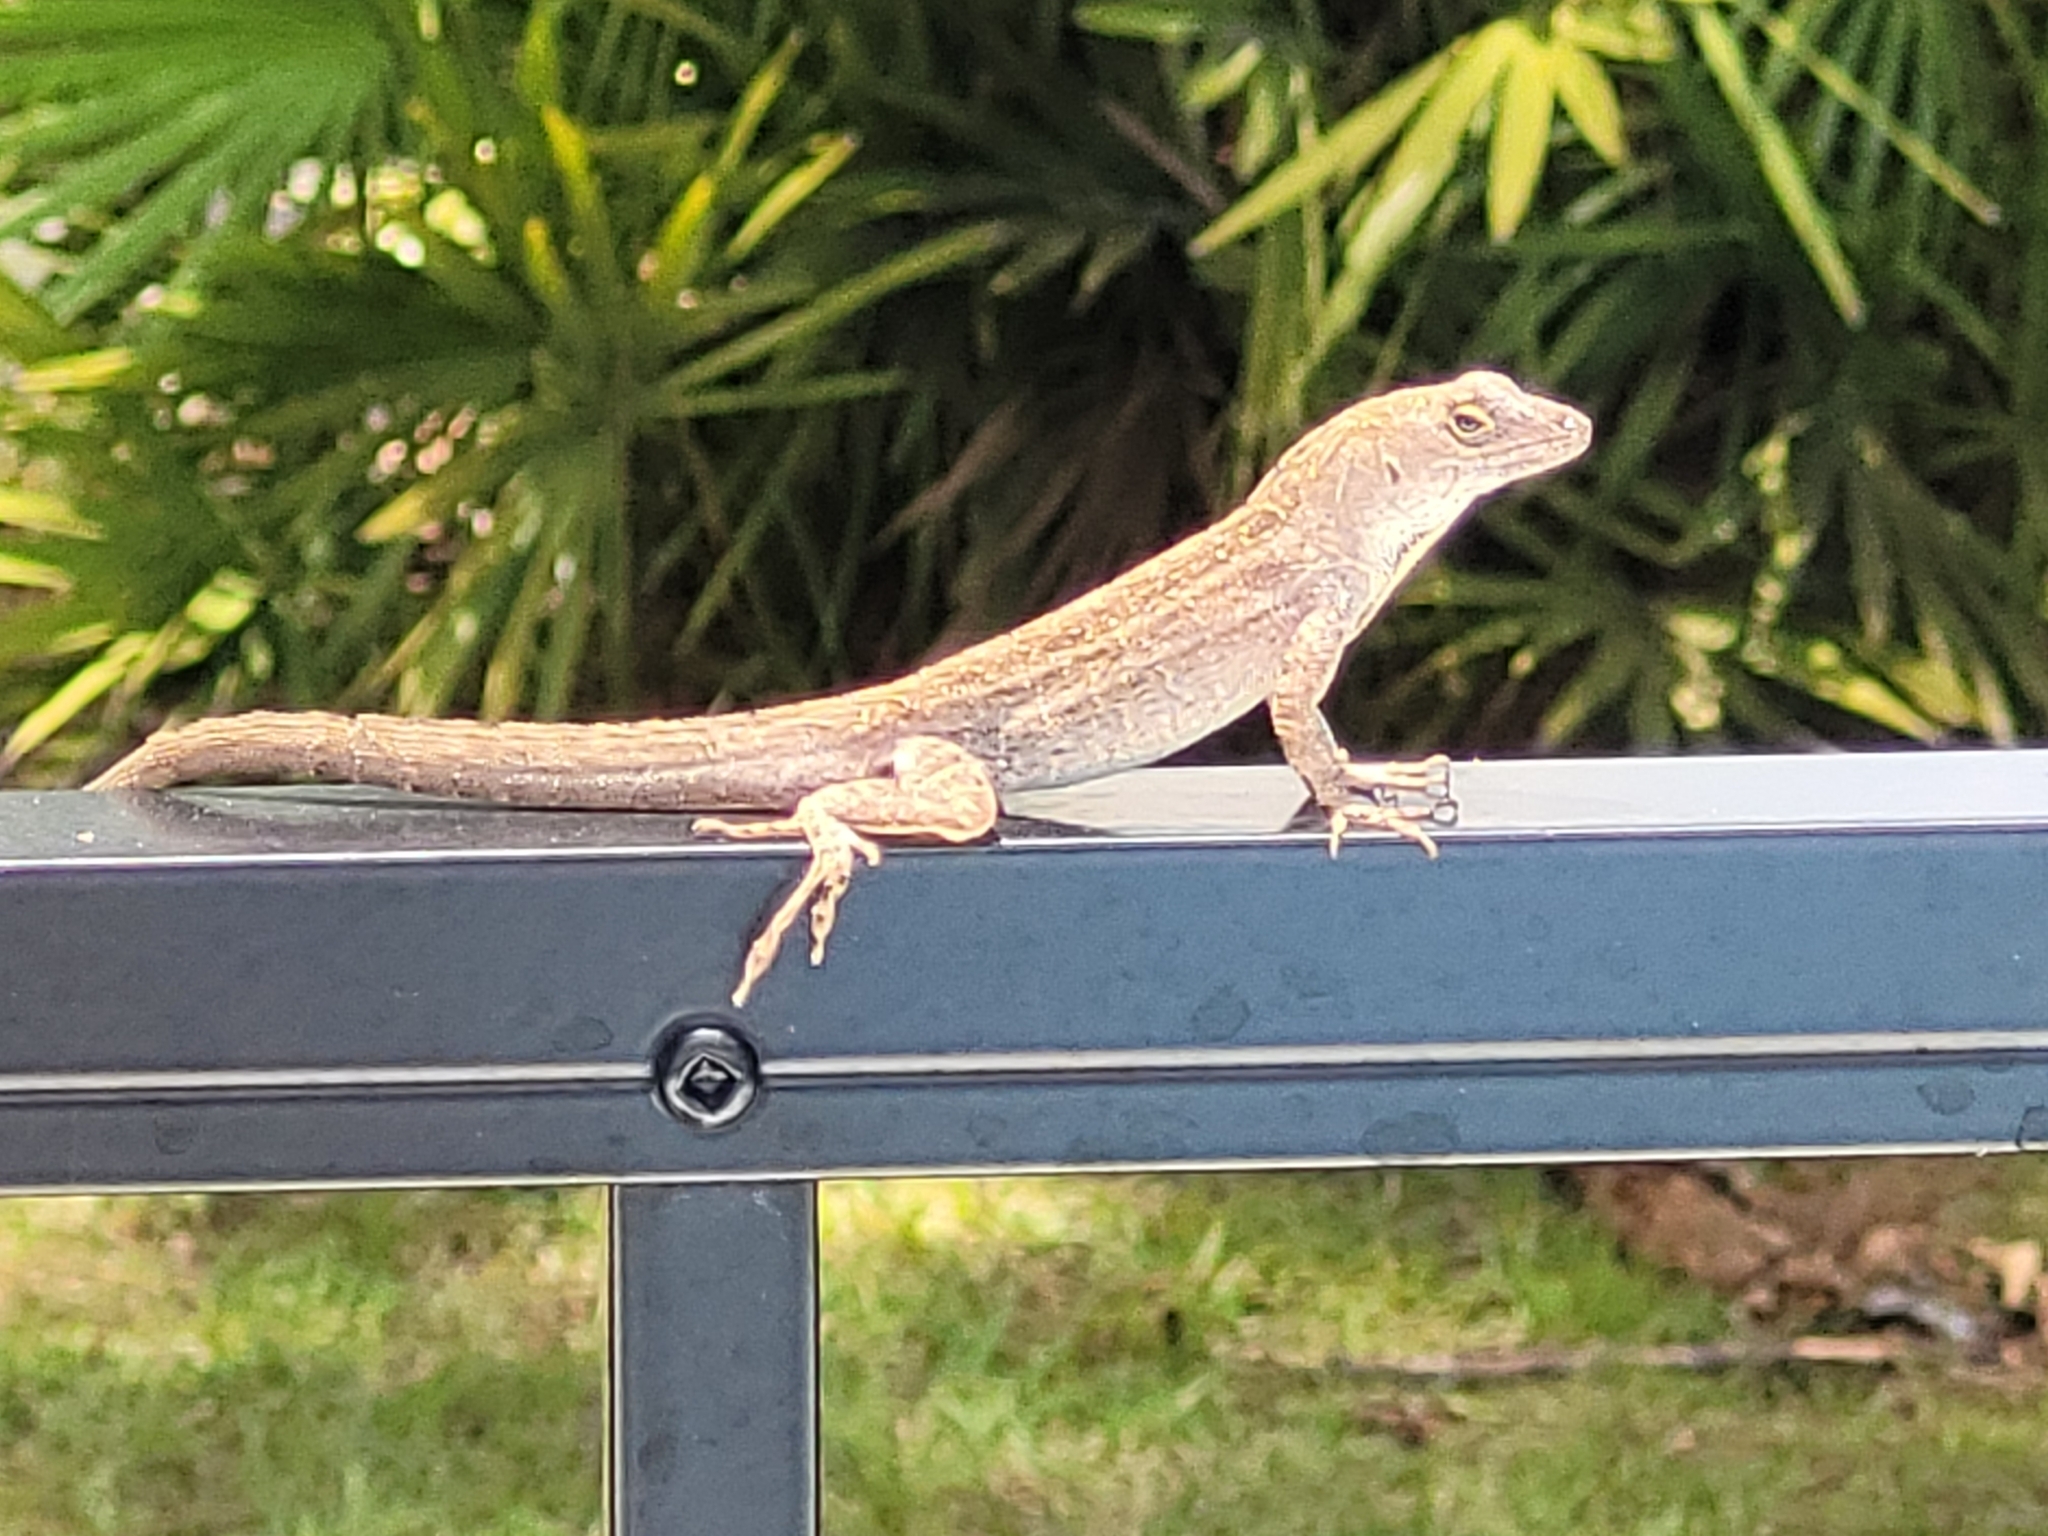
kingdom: Animalia
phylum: Chordata
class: Squamata
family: Dactyloidae
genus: Anolis
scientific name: Anolis sagrei
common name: Brown anole
